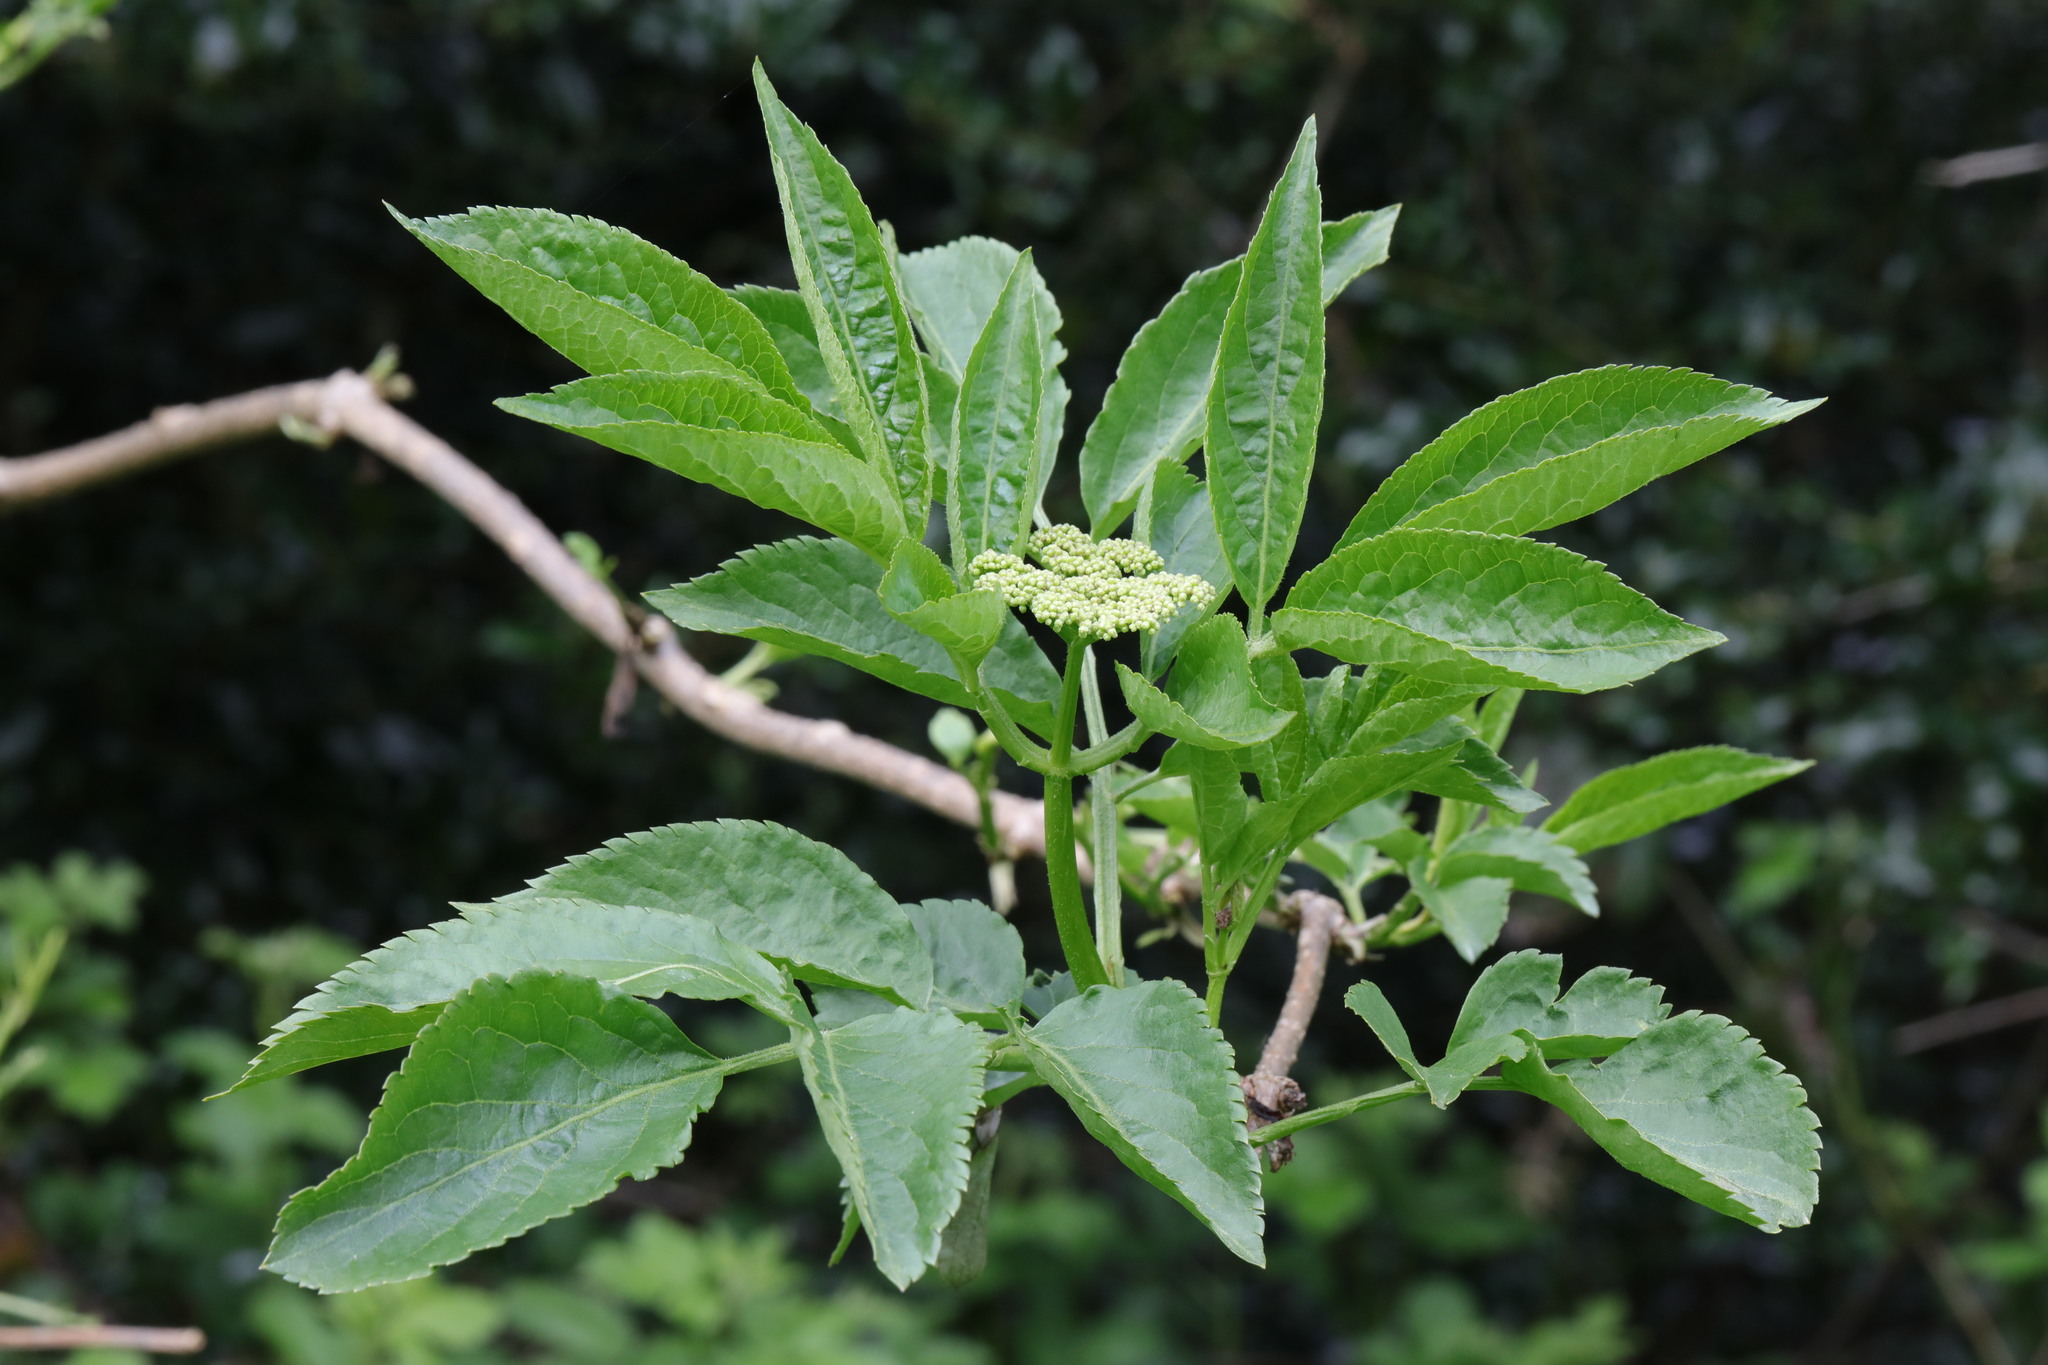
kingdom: Plantae
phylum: Tracheophyta
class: Magnoliopsida
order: Dipsacales
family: Viburnaceae
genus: Sambucus
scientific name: Sambucus nigra
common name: Elder
